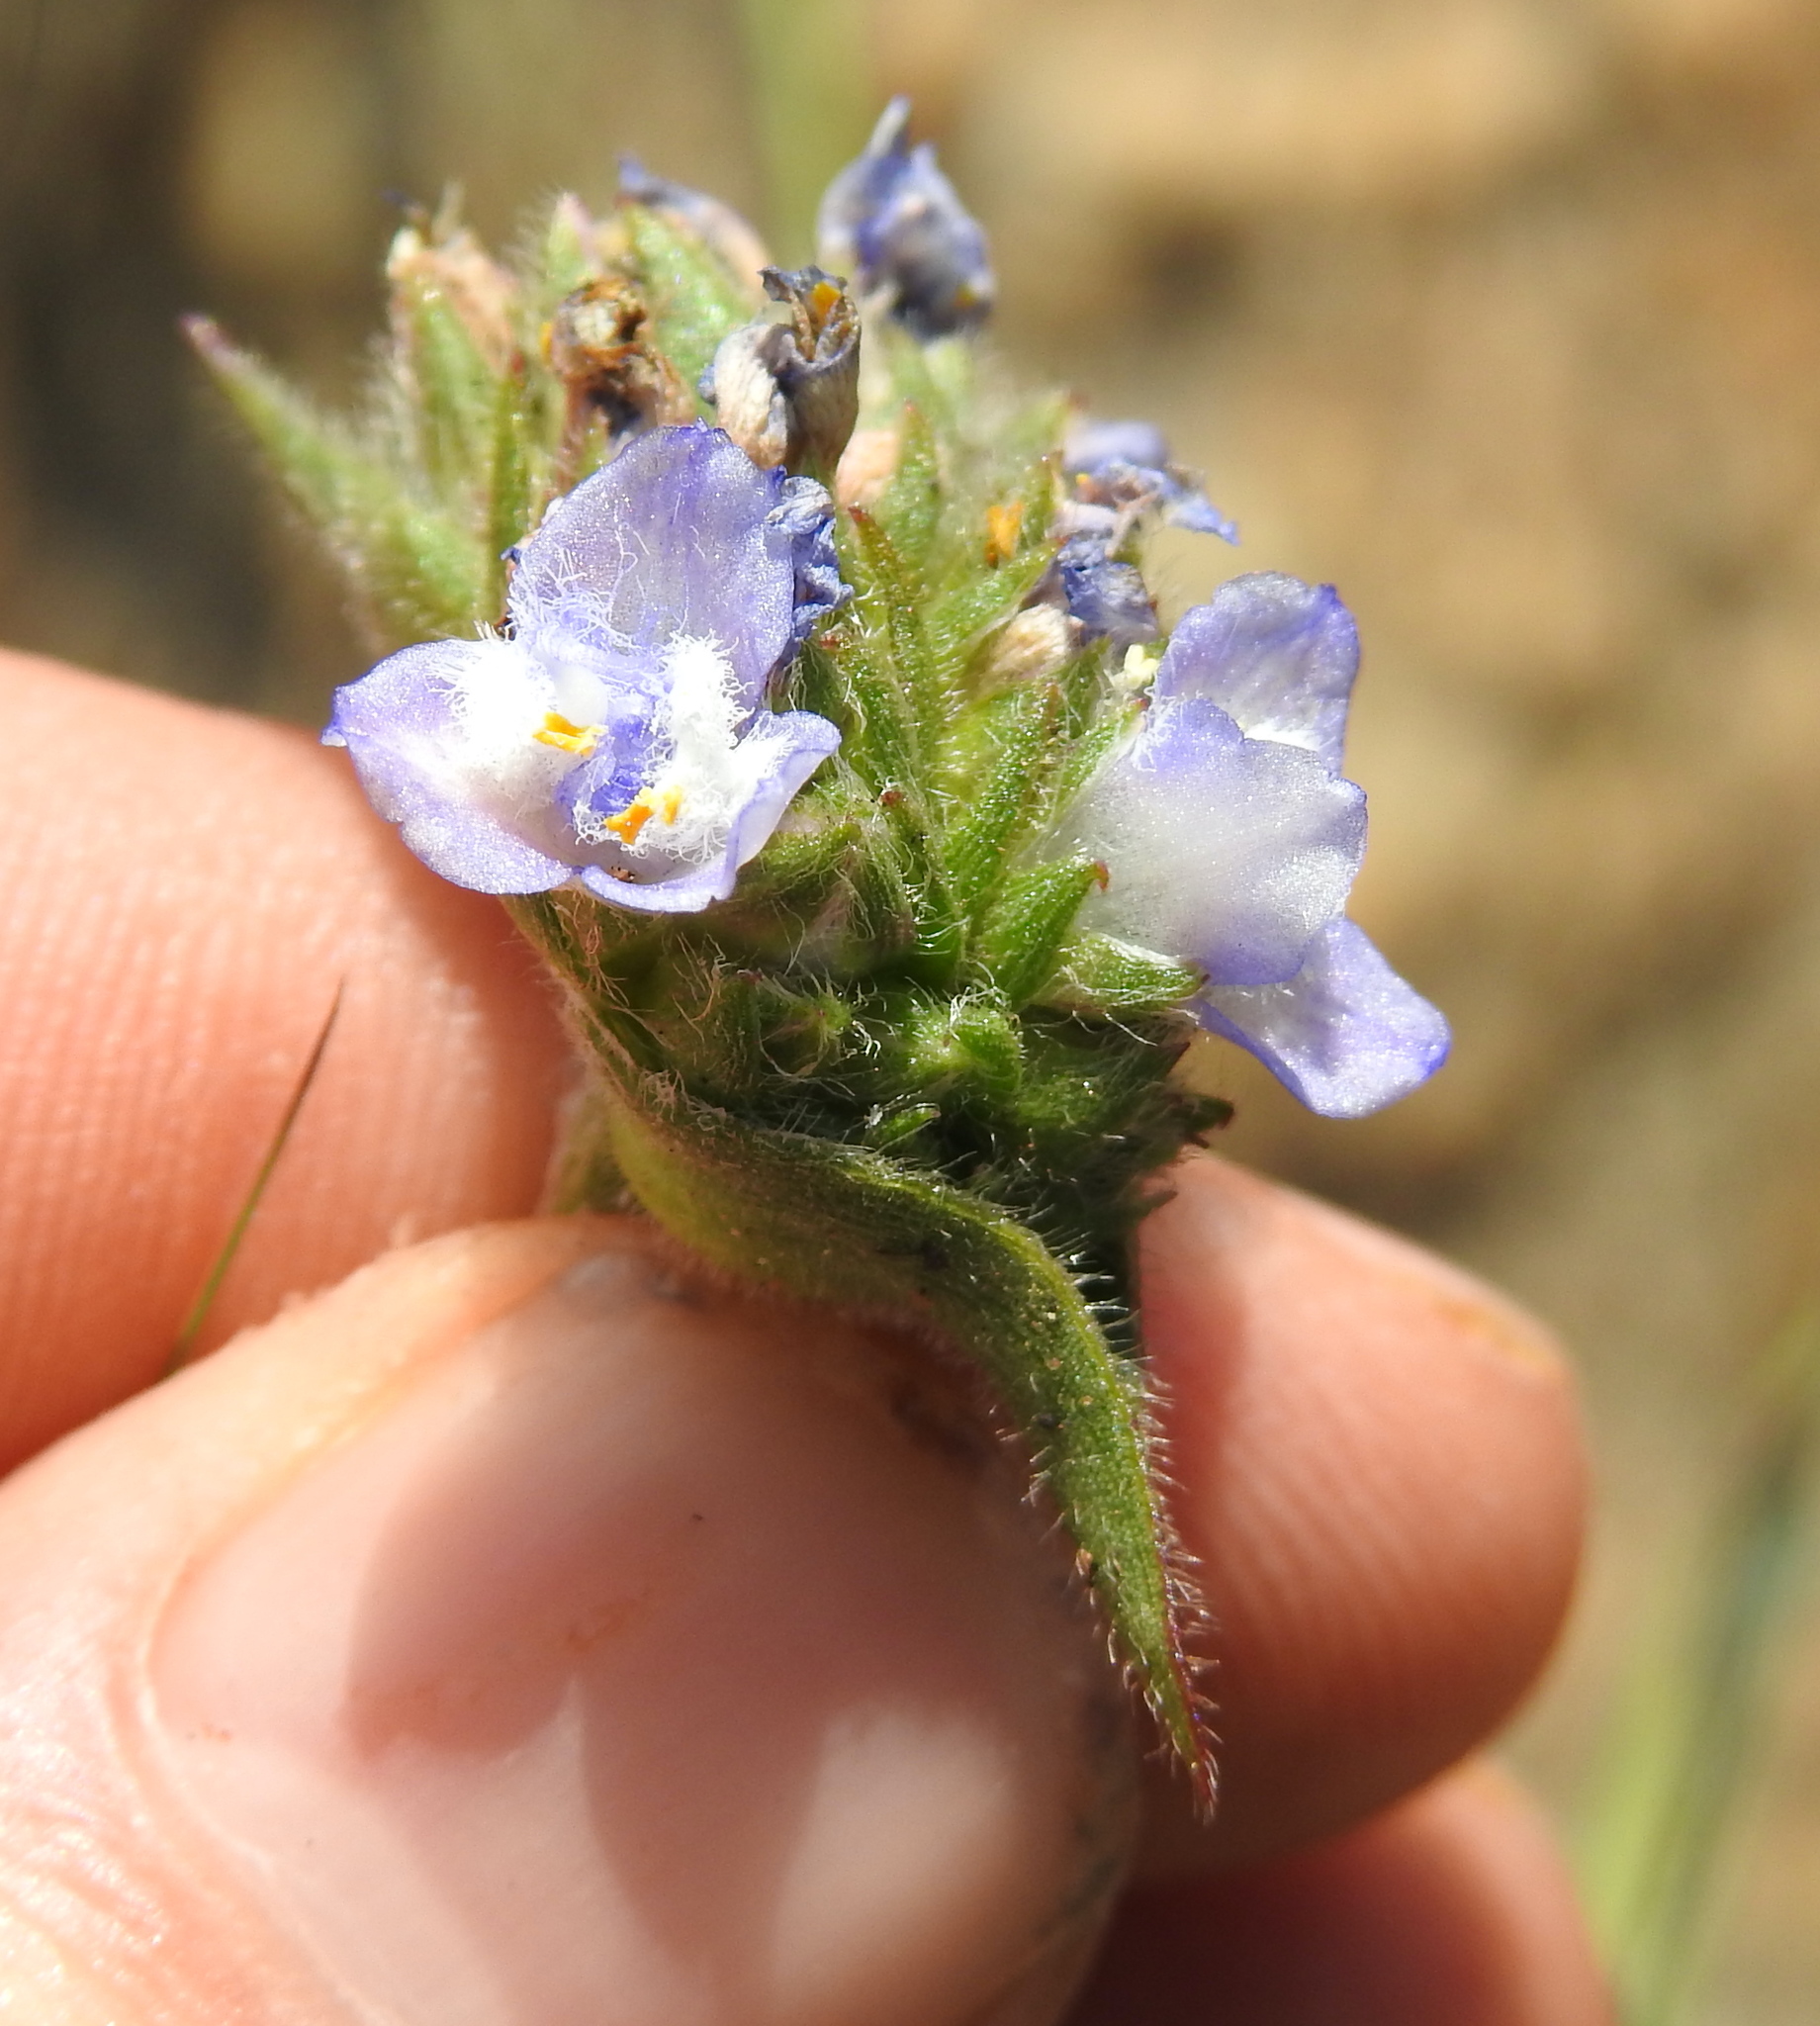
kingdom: Plantae
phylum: Tracheophyta
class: Liliopsida
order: Commelinales
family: Commelinaceae
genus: Cyanotis
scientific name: Cyanotis speciosa
